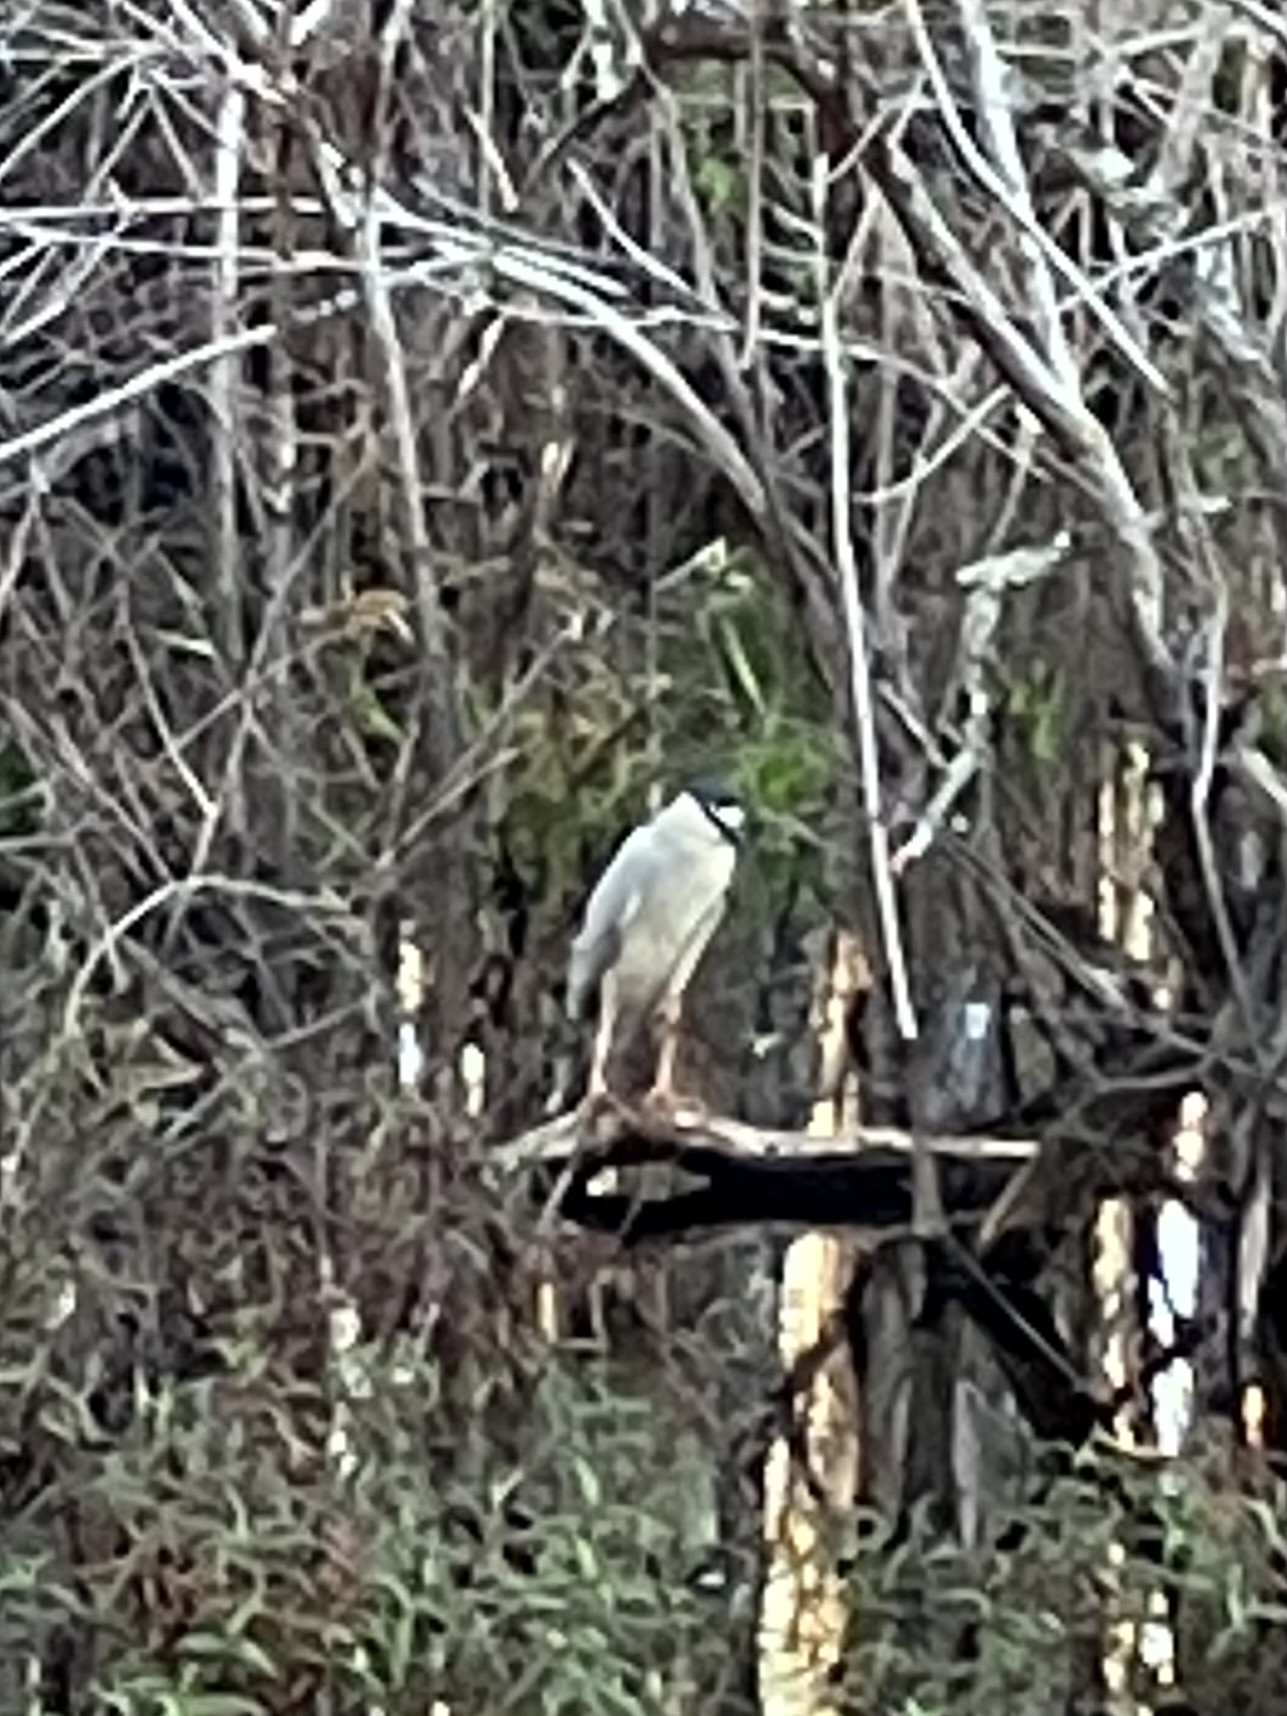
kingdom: Animalia
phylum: Chordata
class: Aves
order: Pelecaniformes
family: Ardeidae
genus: Nycticorax
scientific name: Nycticorax nycticorax
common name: Black-crowned night heron
